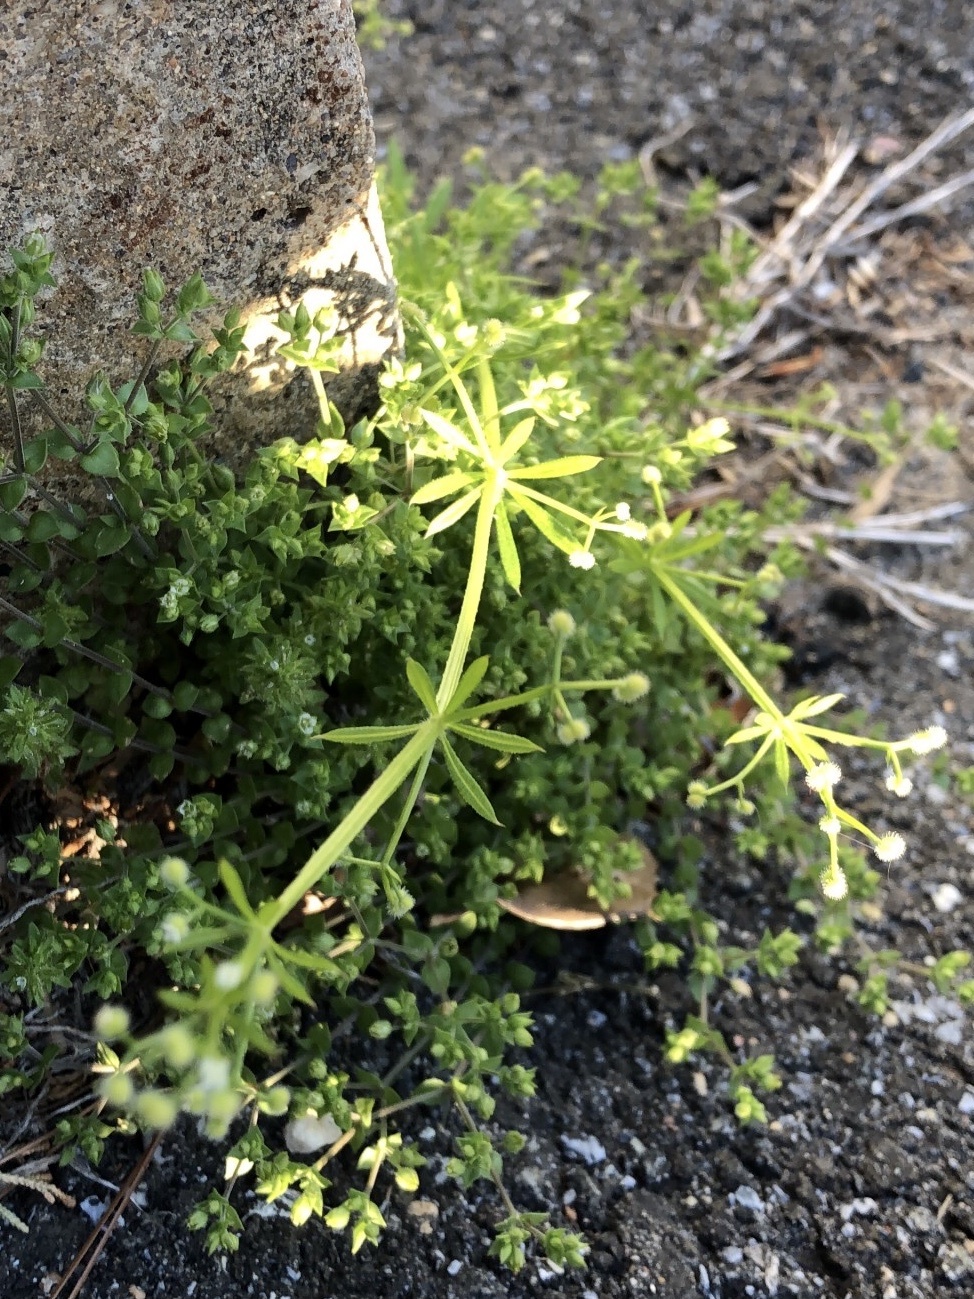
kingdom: Plantae
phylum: Tracheophyta
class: Magnoliopsida
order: Gentianales
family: Rubiaceae
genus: Galium
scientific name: Galium aparine
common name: Cleavers
